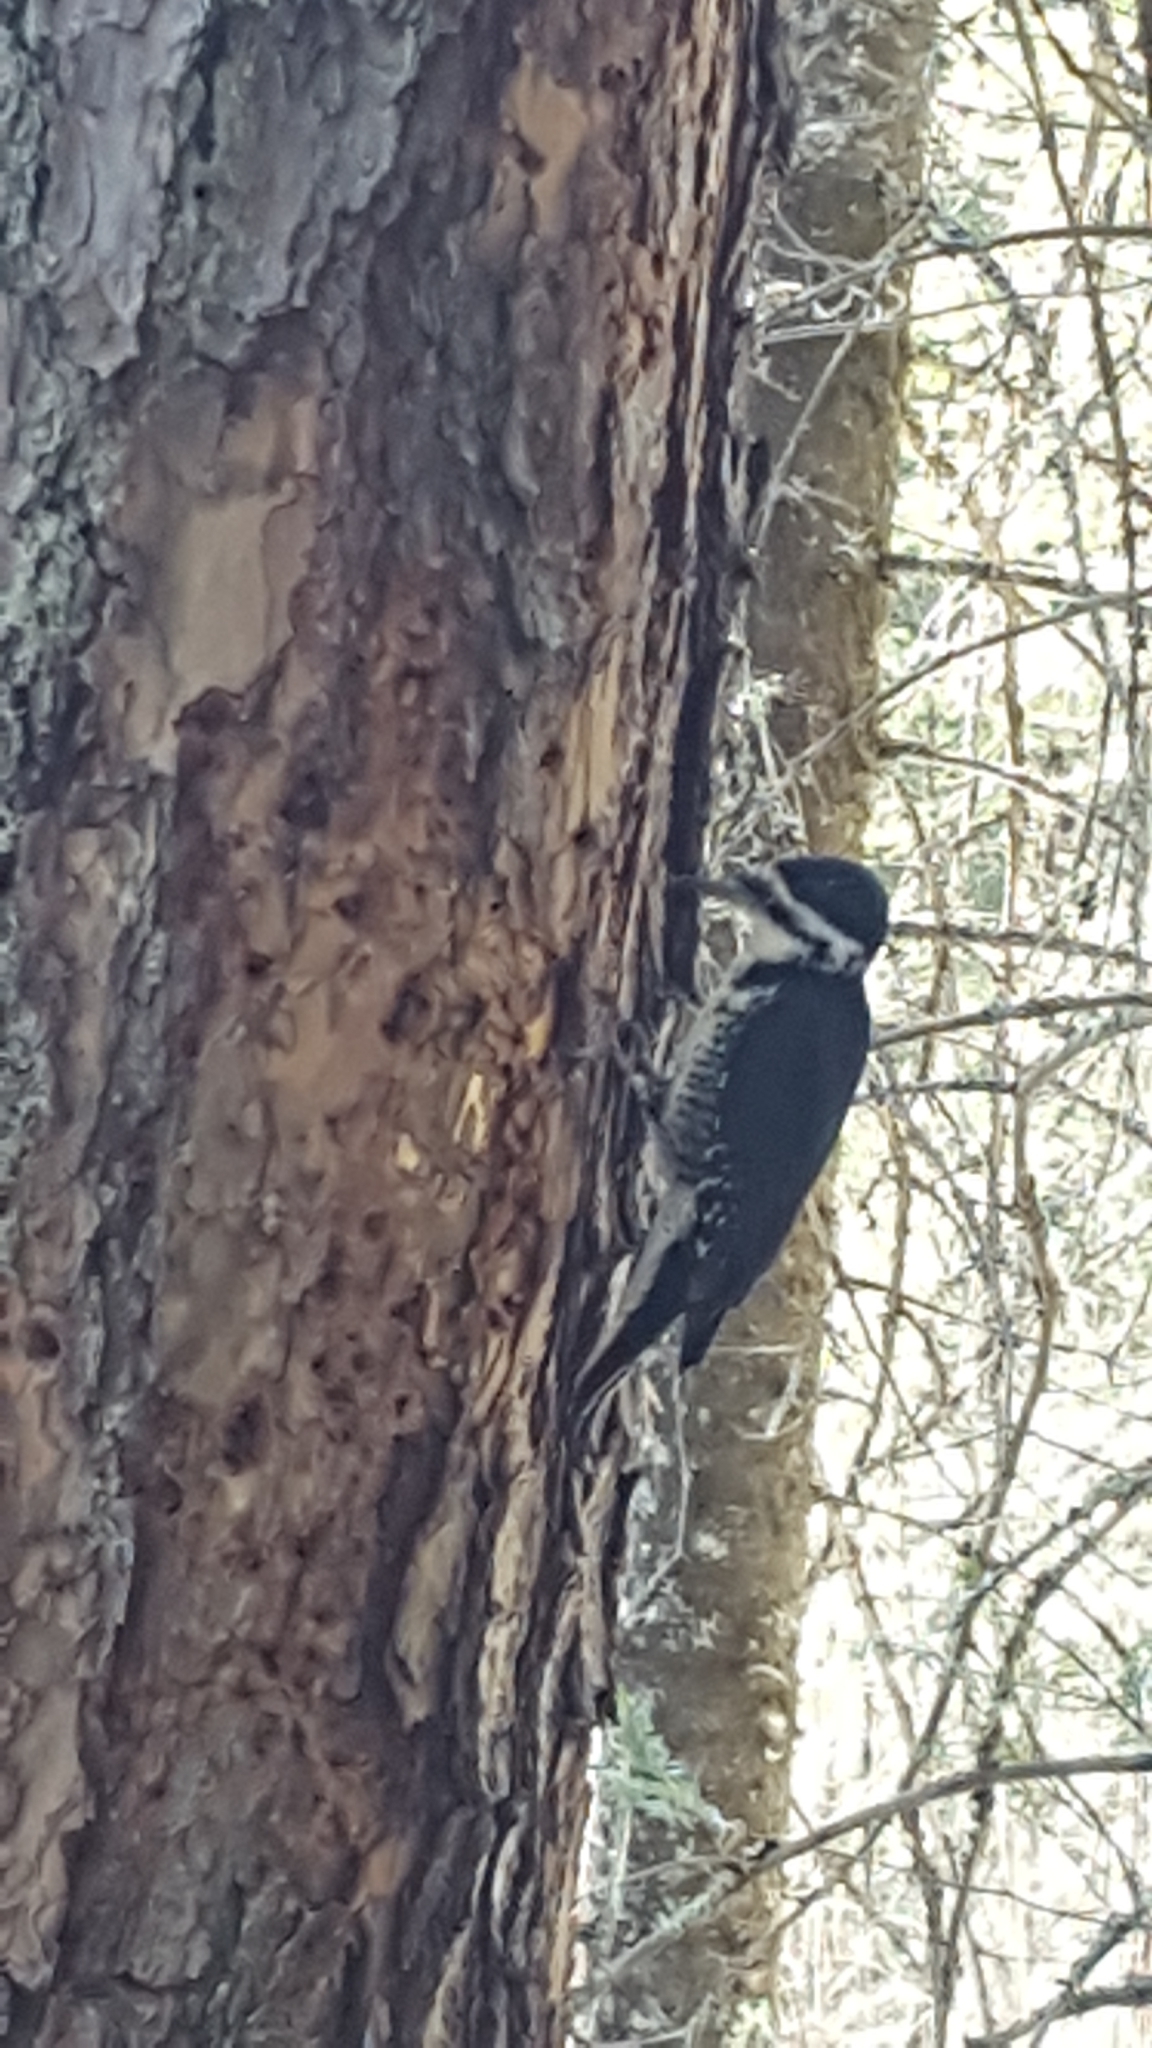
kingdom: Animalia
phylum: Chordata
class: Aves
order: Piciformes
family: Picidae
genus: Picoides
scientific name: Picoides arcticus
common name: Black-backed woodpecker
